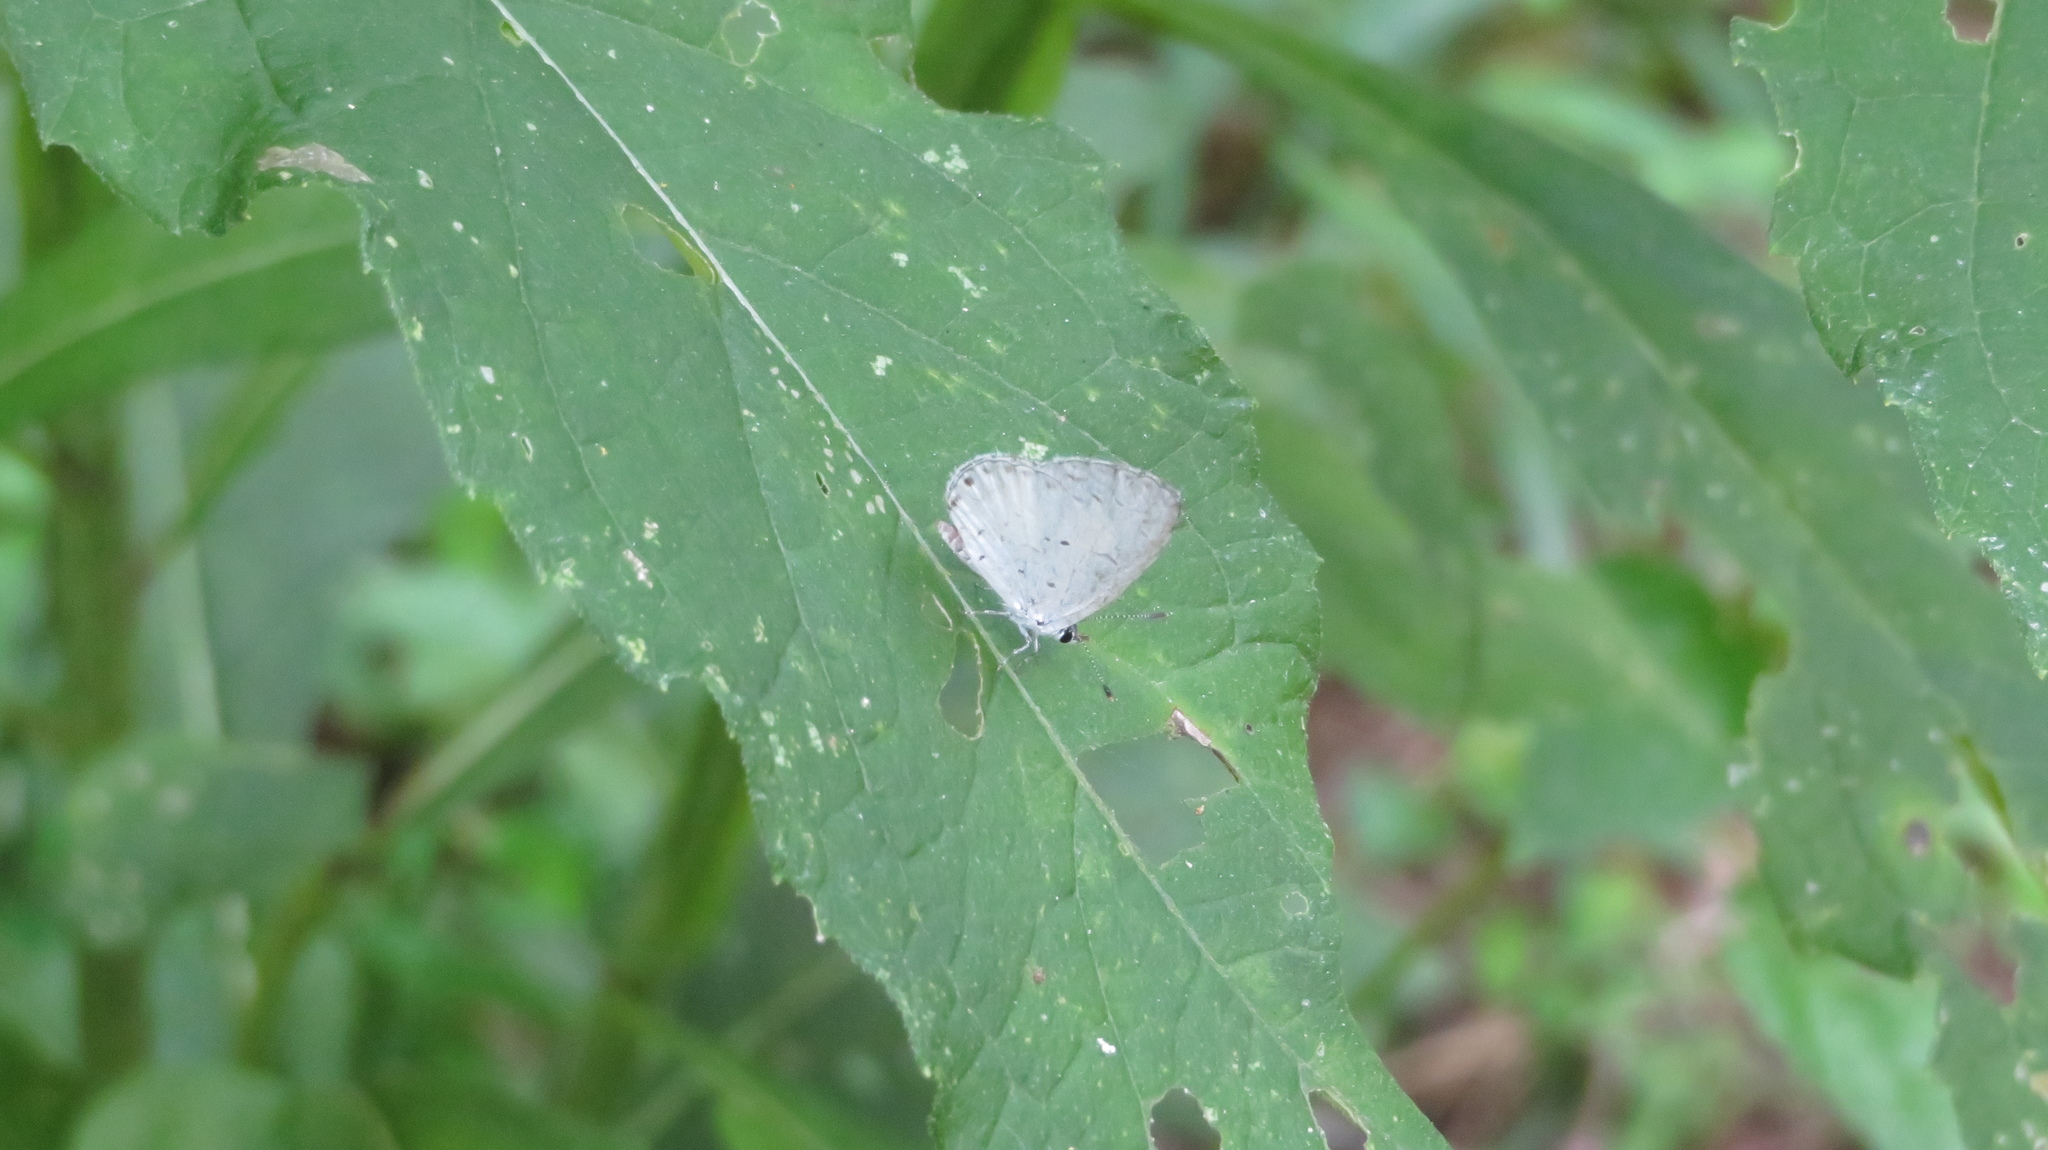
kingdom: Animalia
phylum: Arthropoda
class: Insecta
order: Lepidoptera
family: Lycaenidae
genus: Cyaniris
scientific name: Cyaniris neglecta
